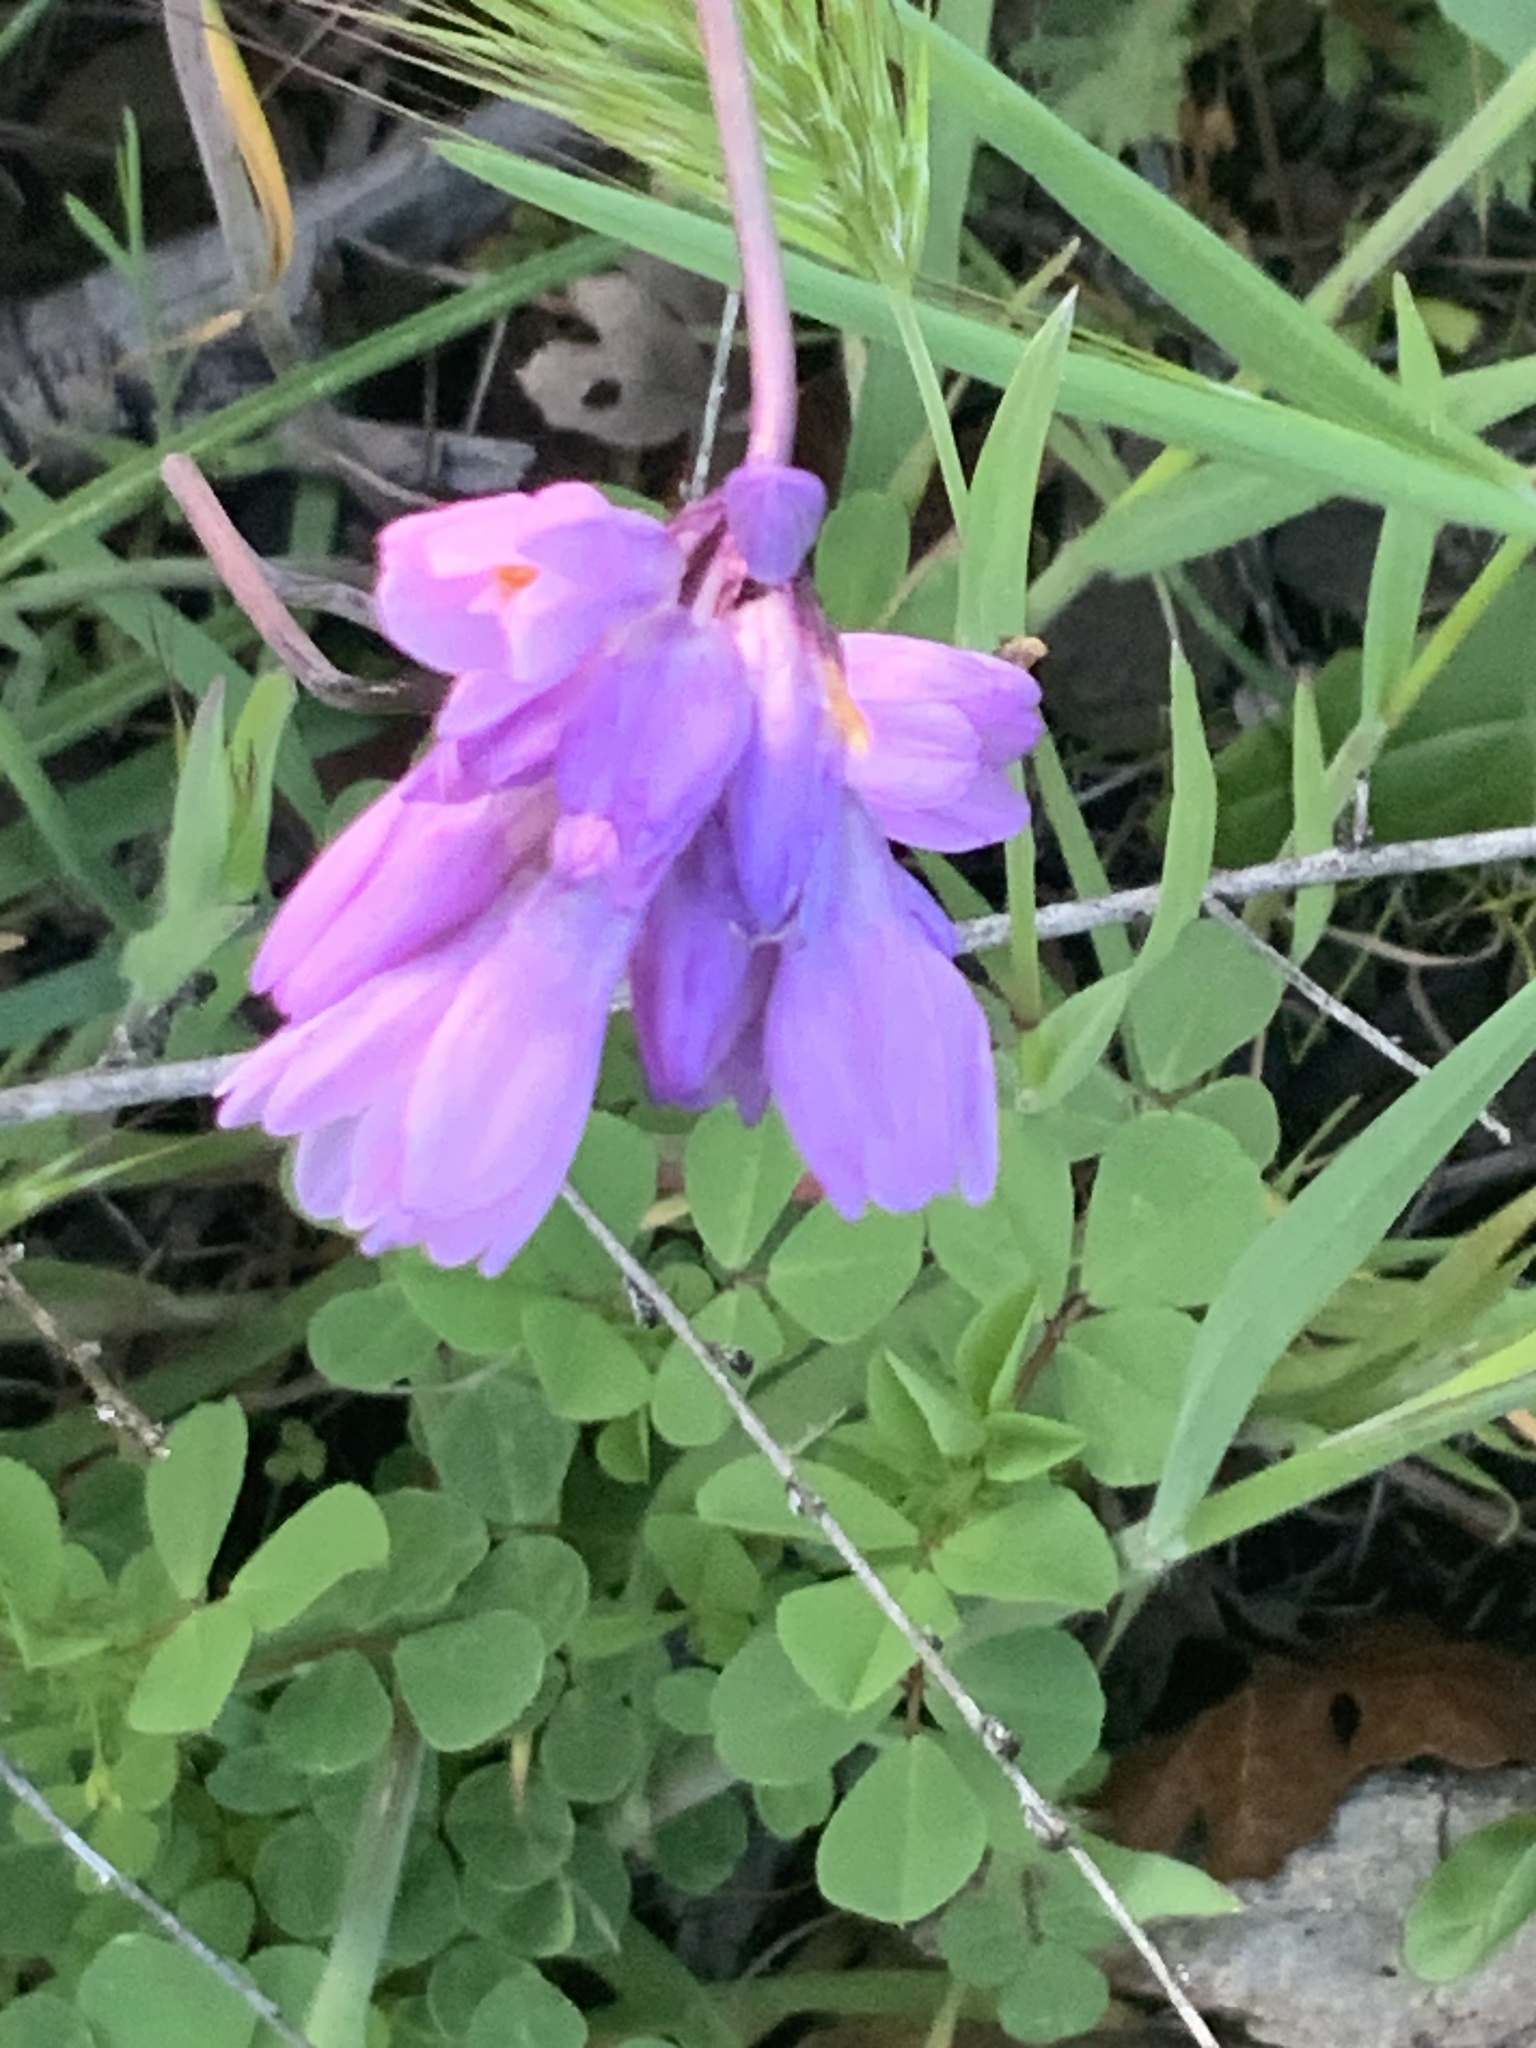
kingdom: Plantae
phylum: Tracheophyta
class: Liliopsida
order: Asparagales
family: Asparagaceae
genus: Dipterostemon
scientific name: Dipterostemon capitatus
